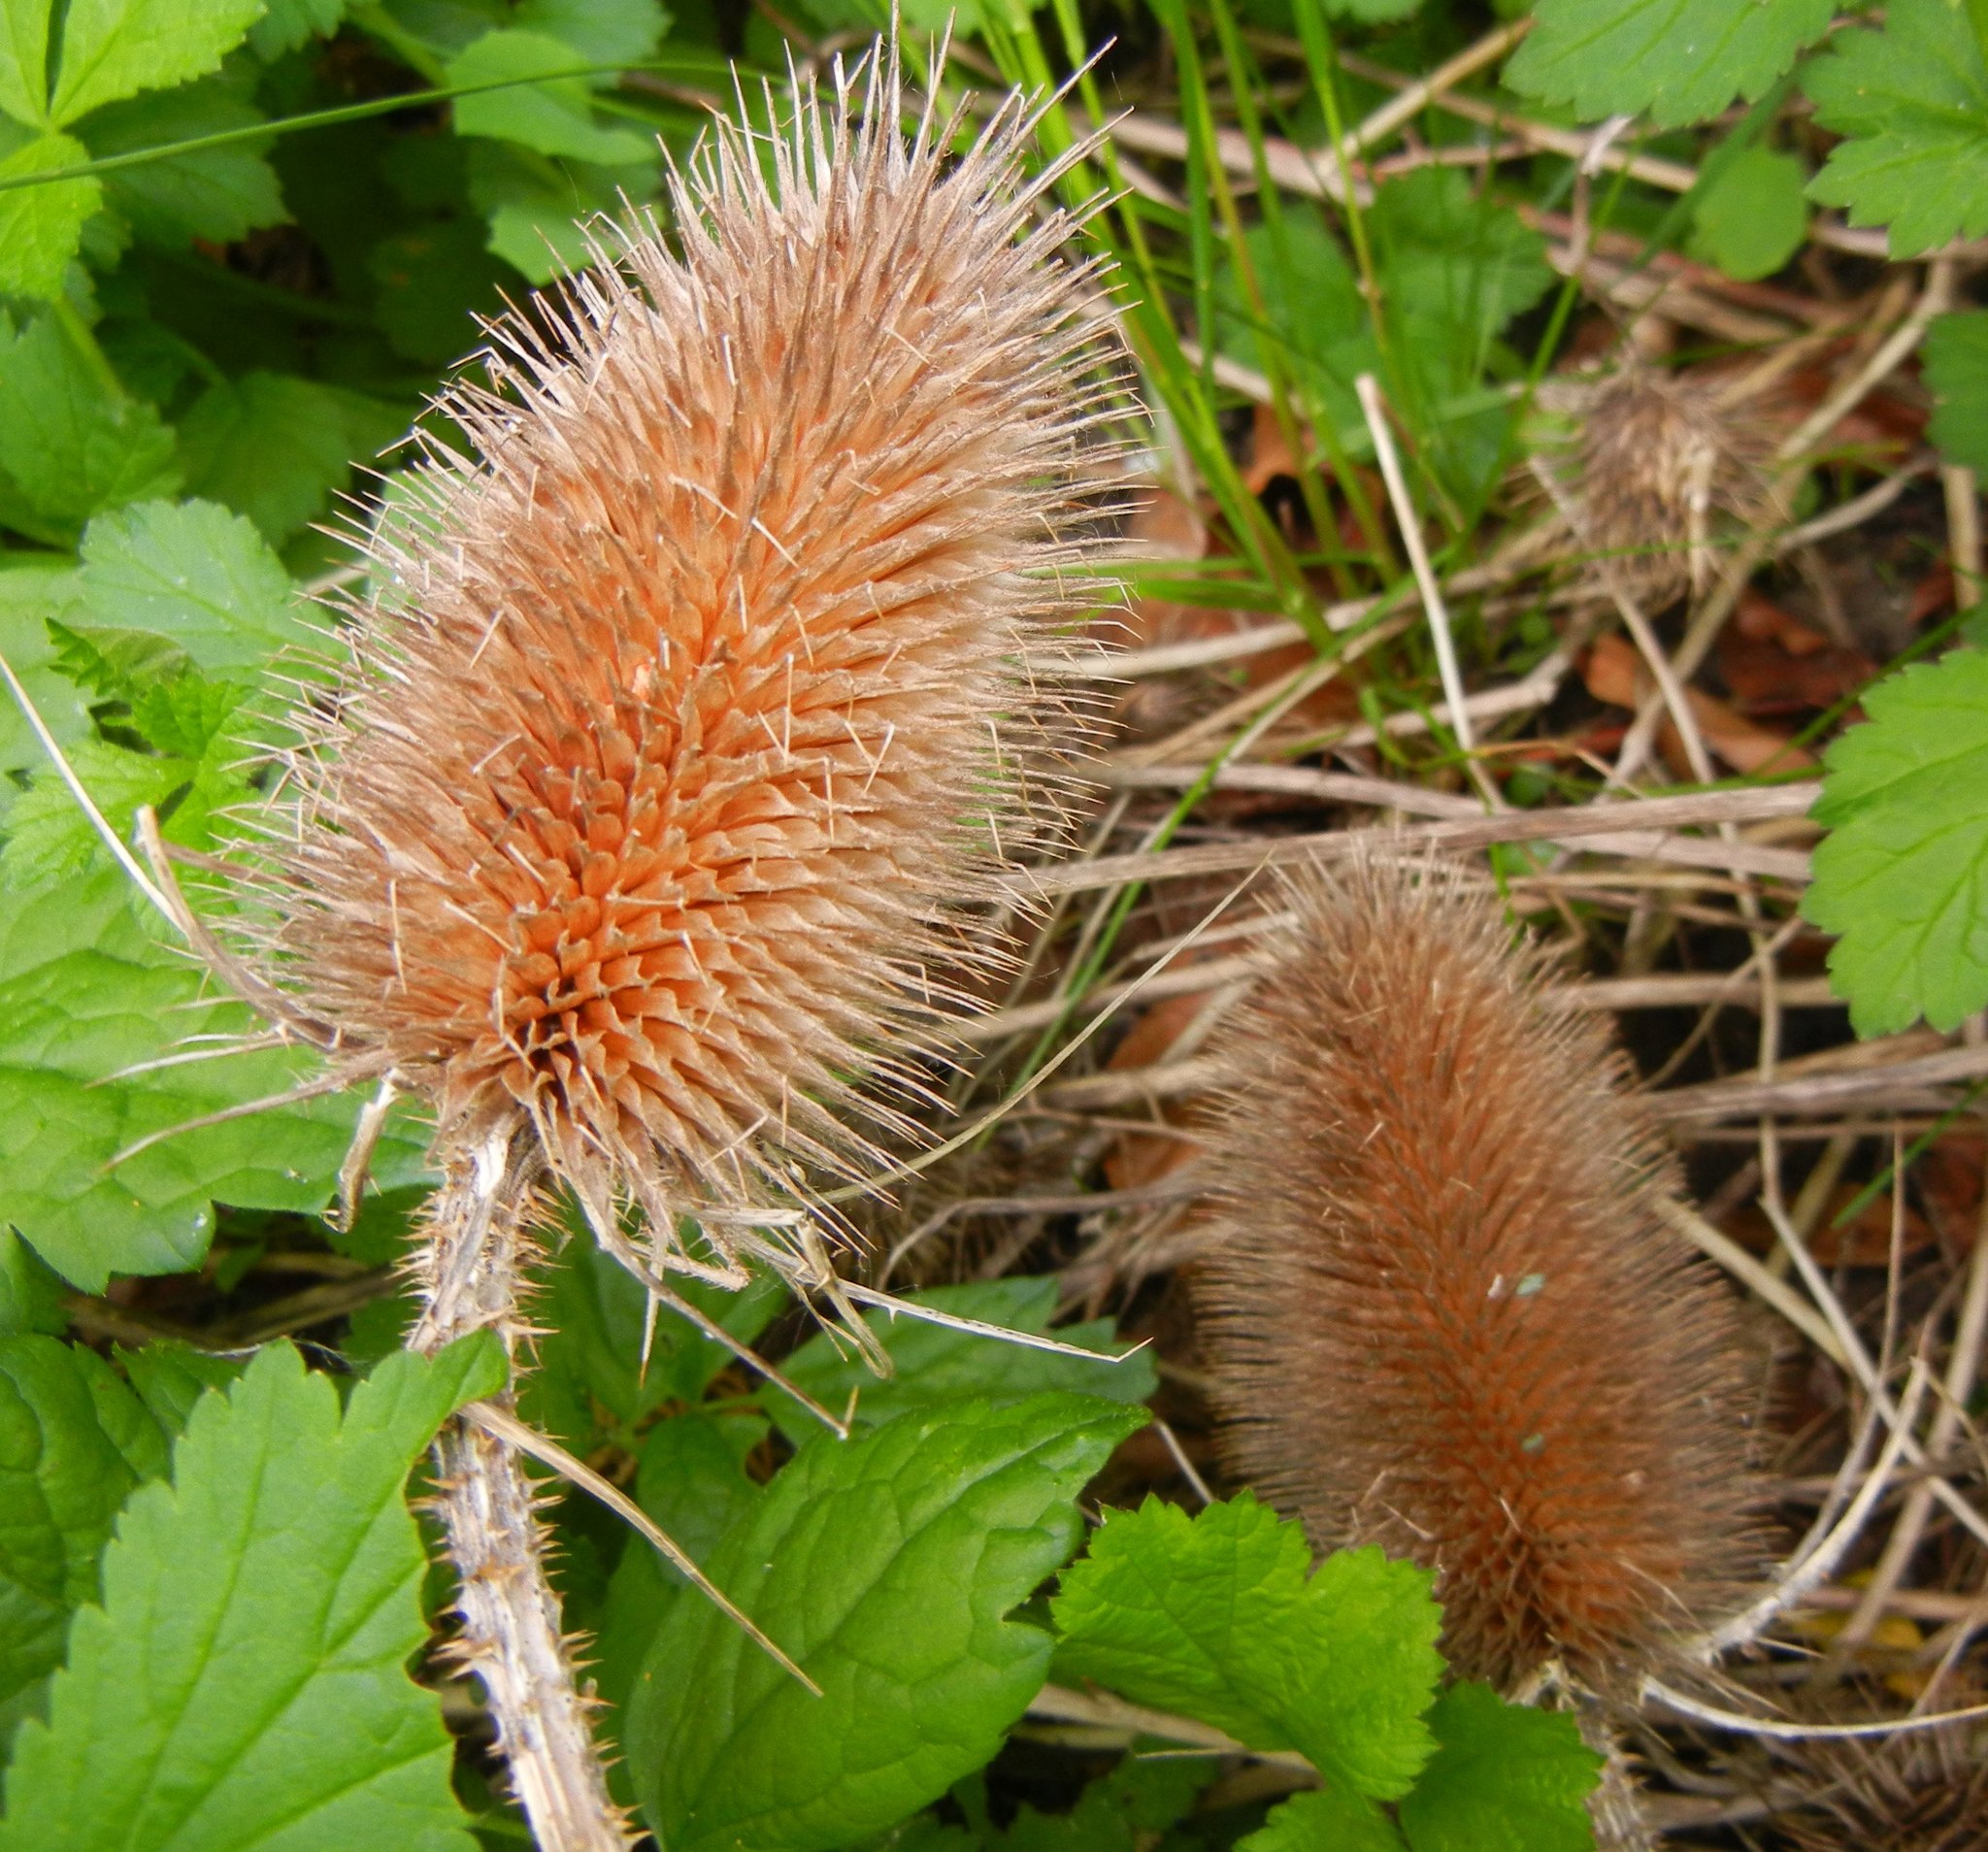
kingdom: Plantae
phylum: Tracheophyta
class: Magnoliopsida
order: Dipsacales
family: Caprifoliaceae
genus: Dipsacus
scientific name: Dipsacus fullonum
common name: Teasel
